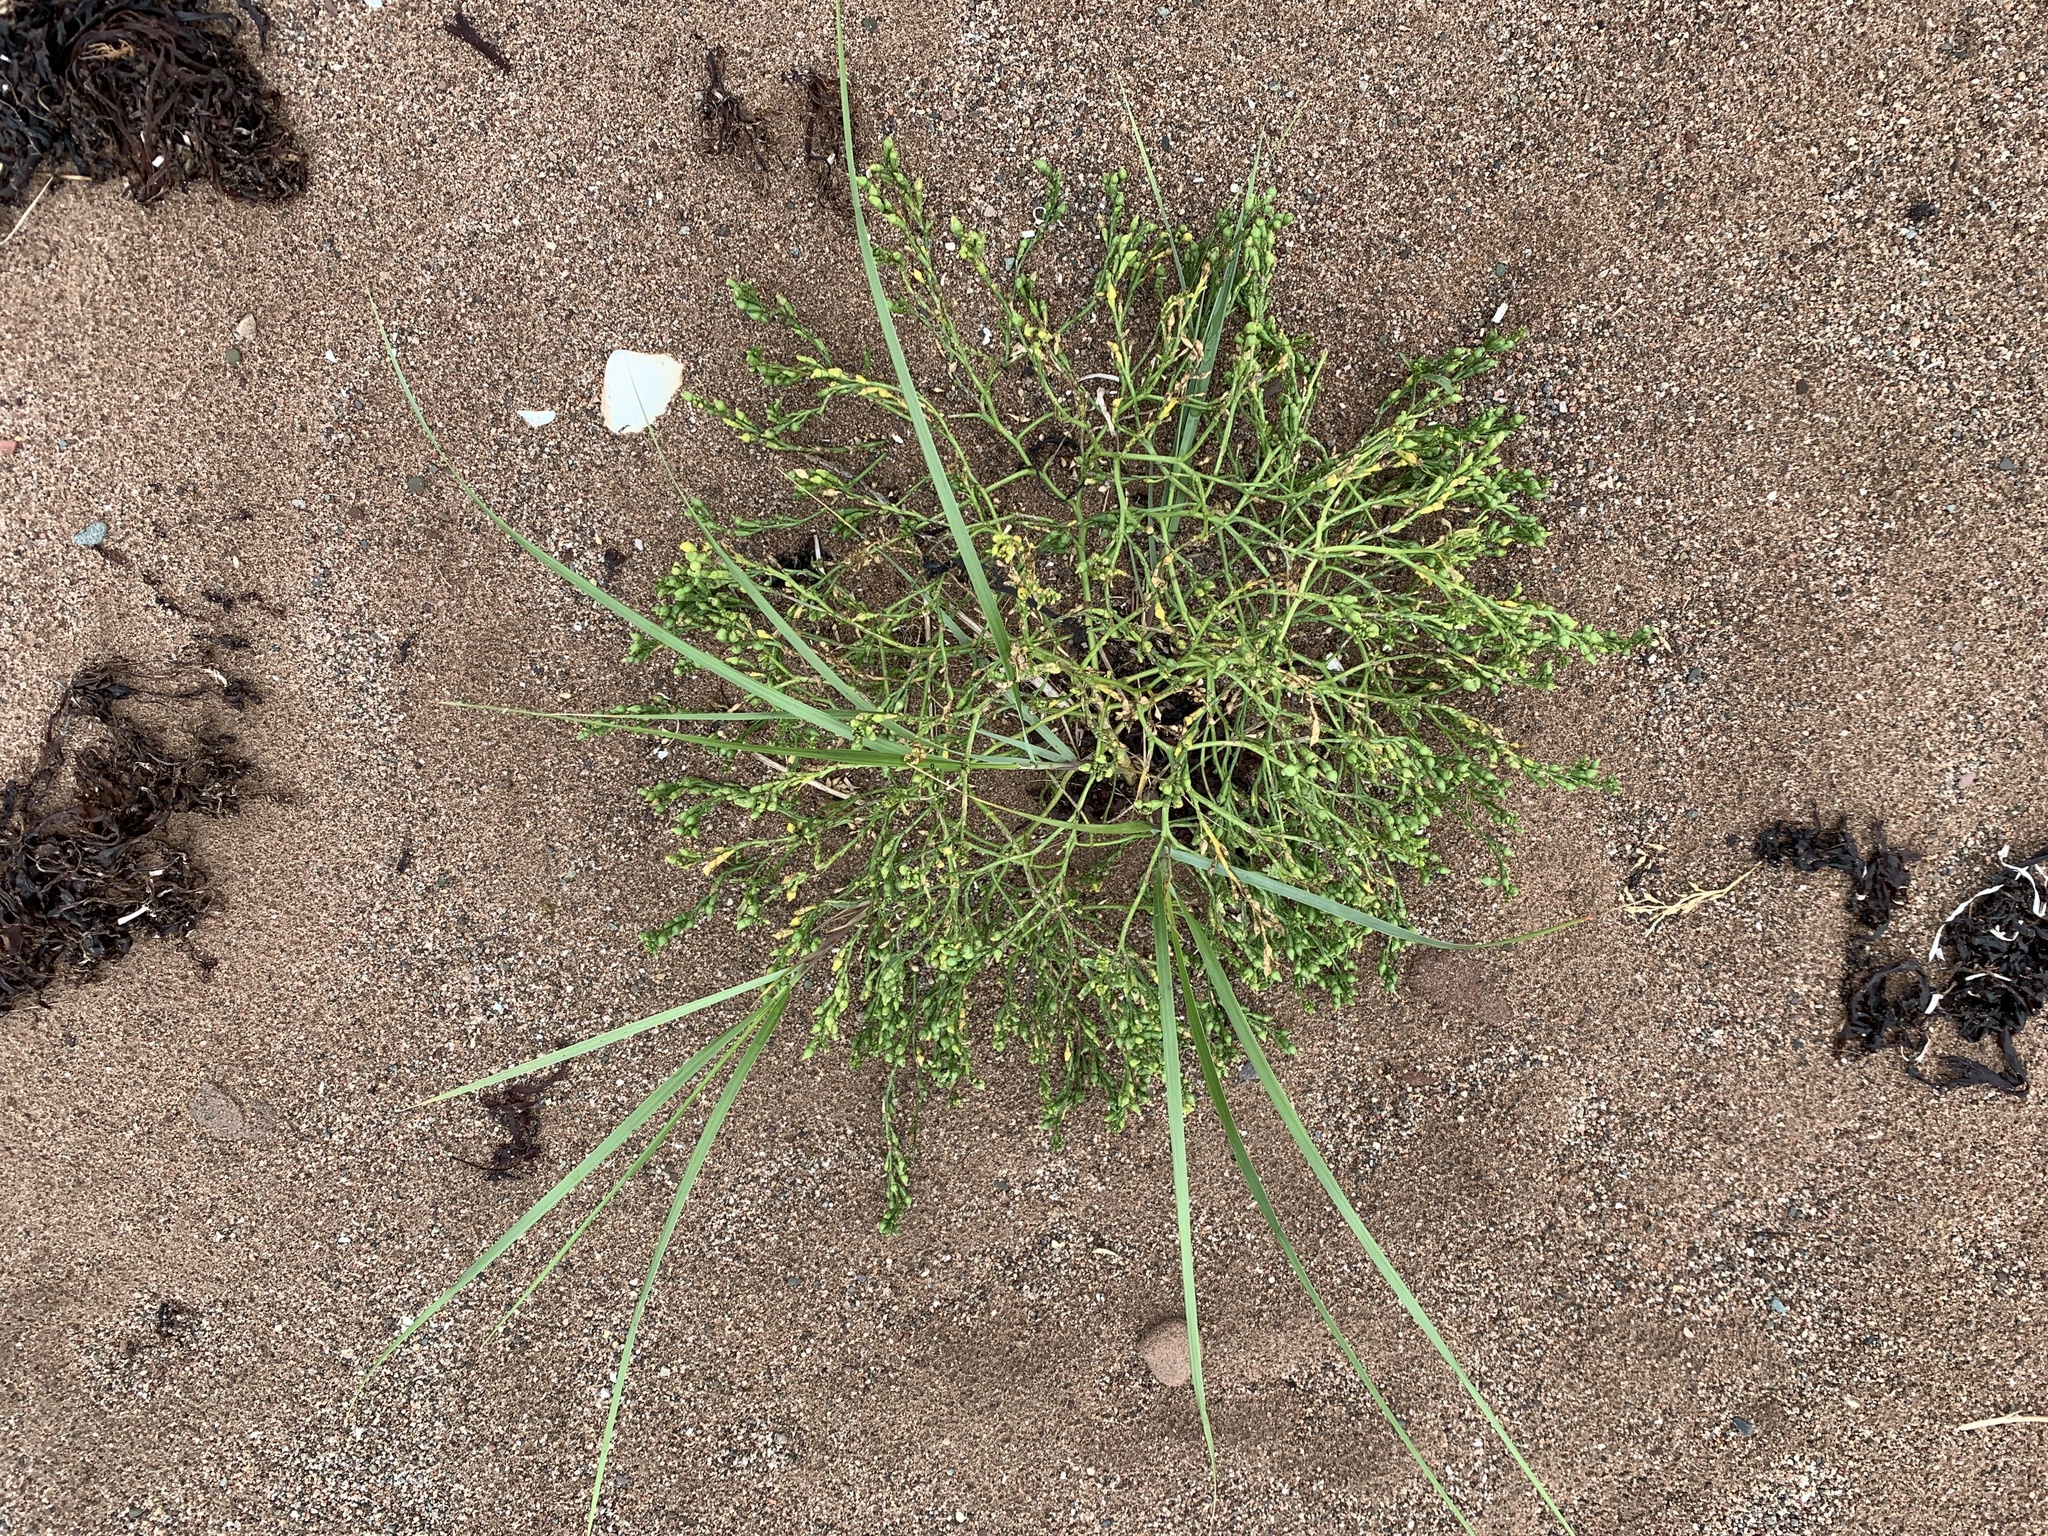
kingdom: Plantae
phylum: Tracheophyta
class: Magnoliopsida
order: Brassicales
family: Brassicaceae
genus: Cakile
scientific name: Cakile edentula
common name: American sea rocket
